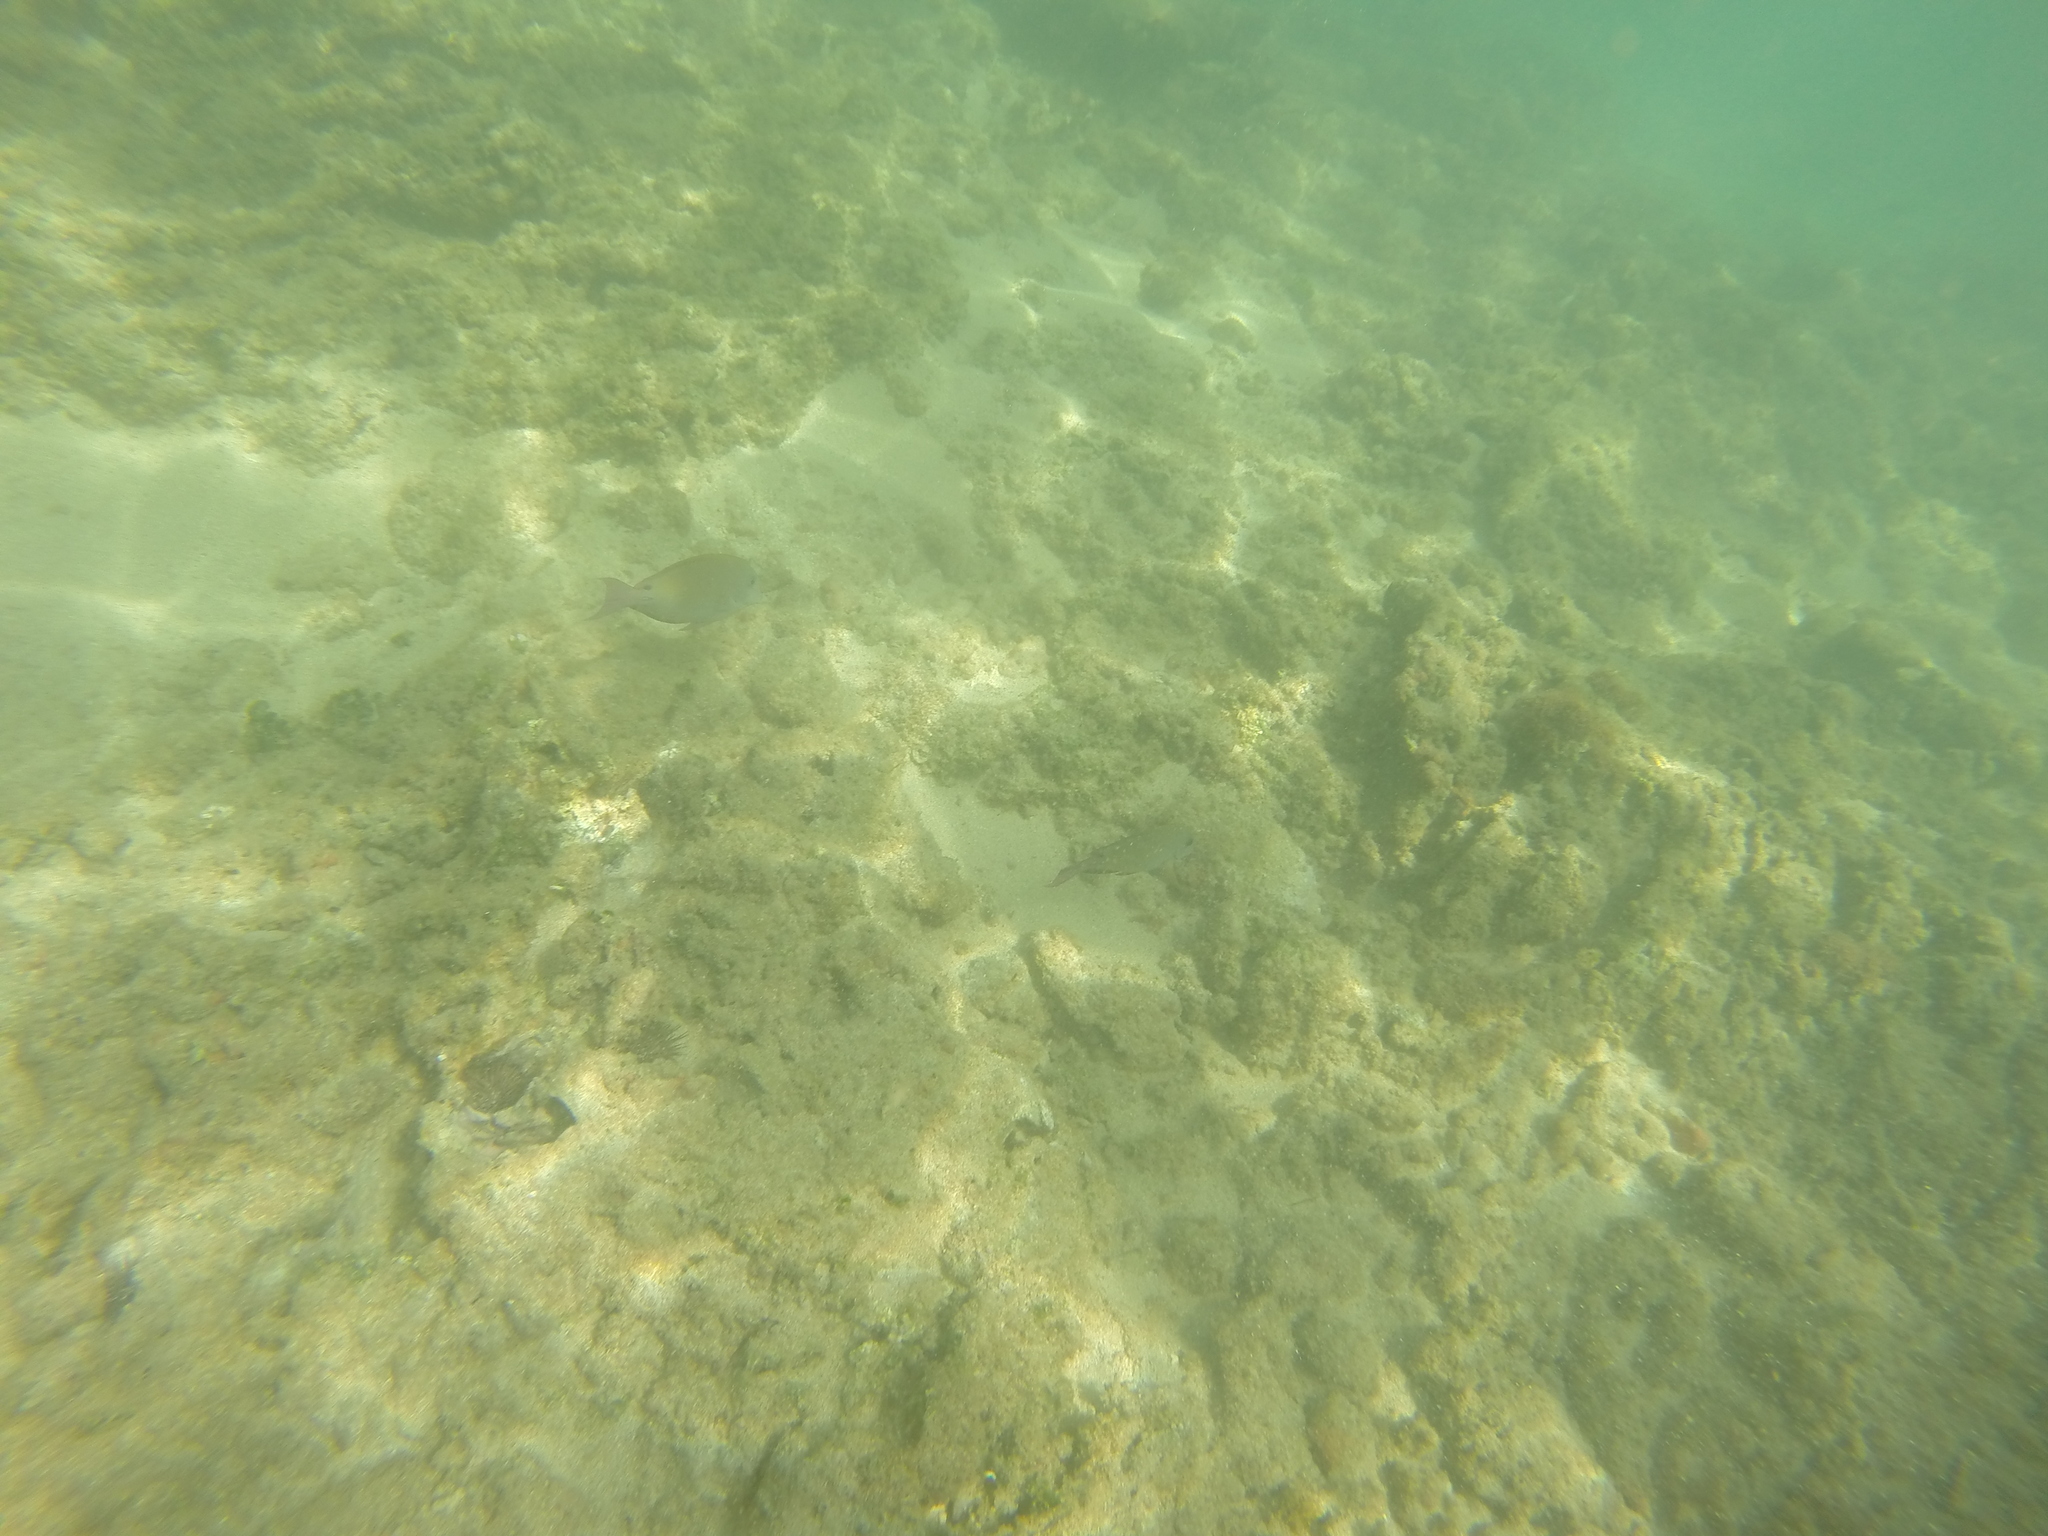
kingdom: Animalia
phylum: Chordata
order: Perciformes
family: Acanthuridae
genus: Acanthurus
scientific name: Acanthurus nigrofuscus
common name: Blackspot surgeonfish
